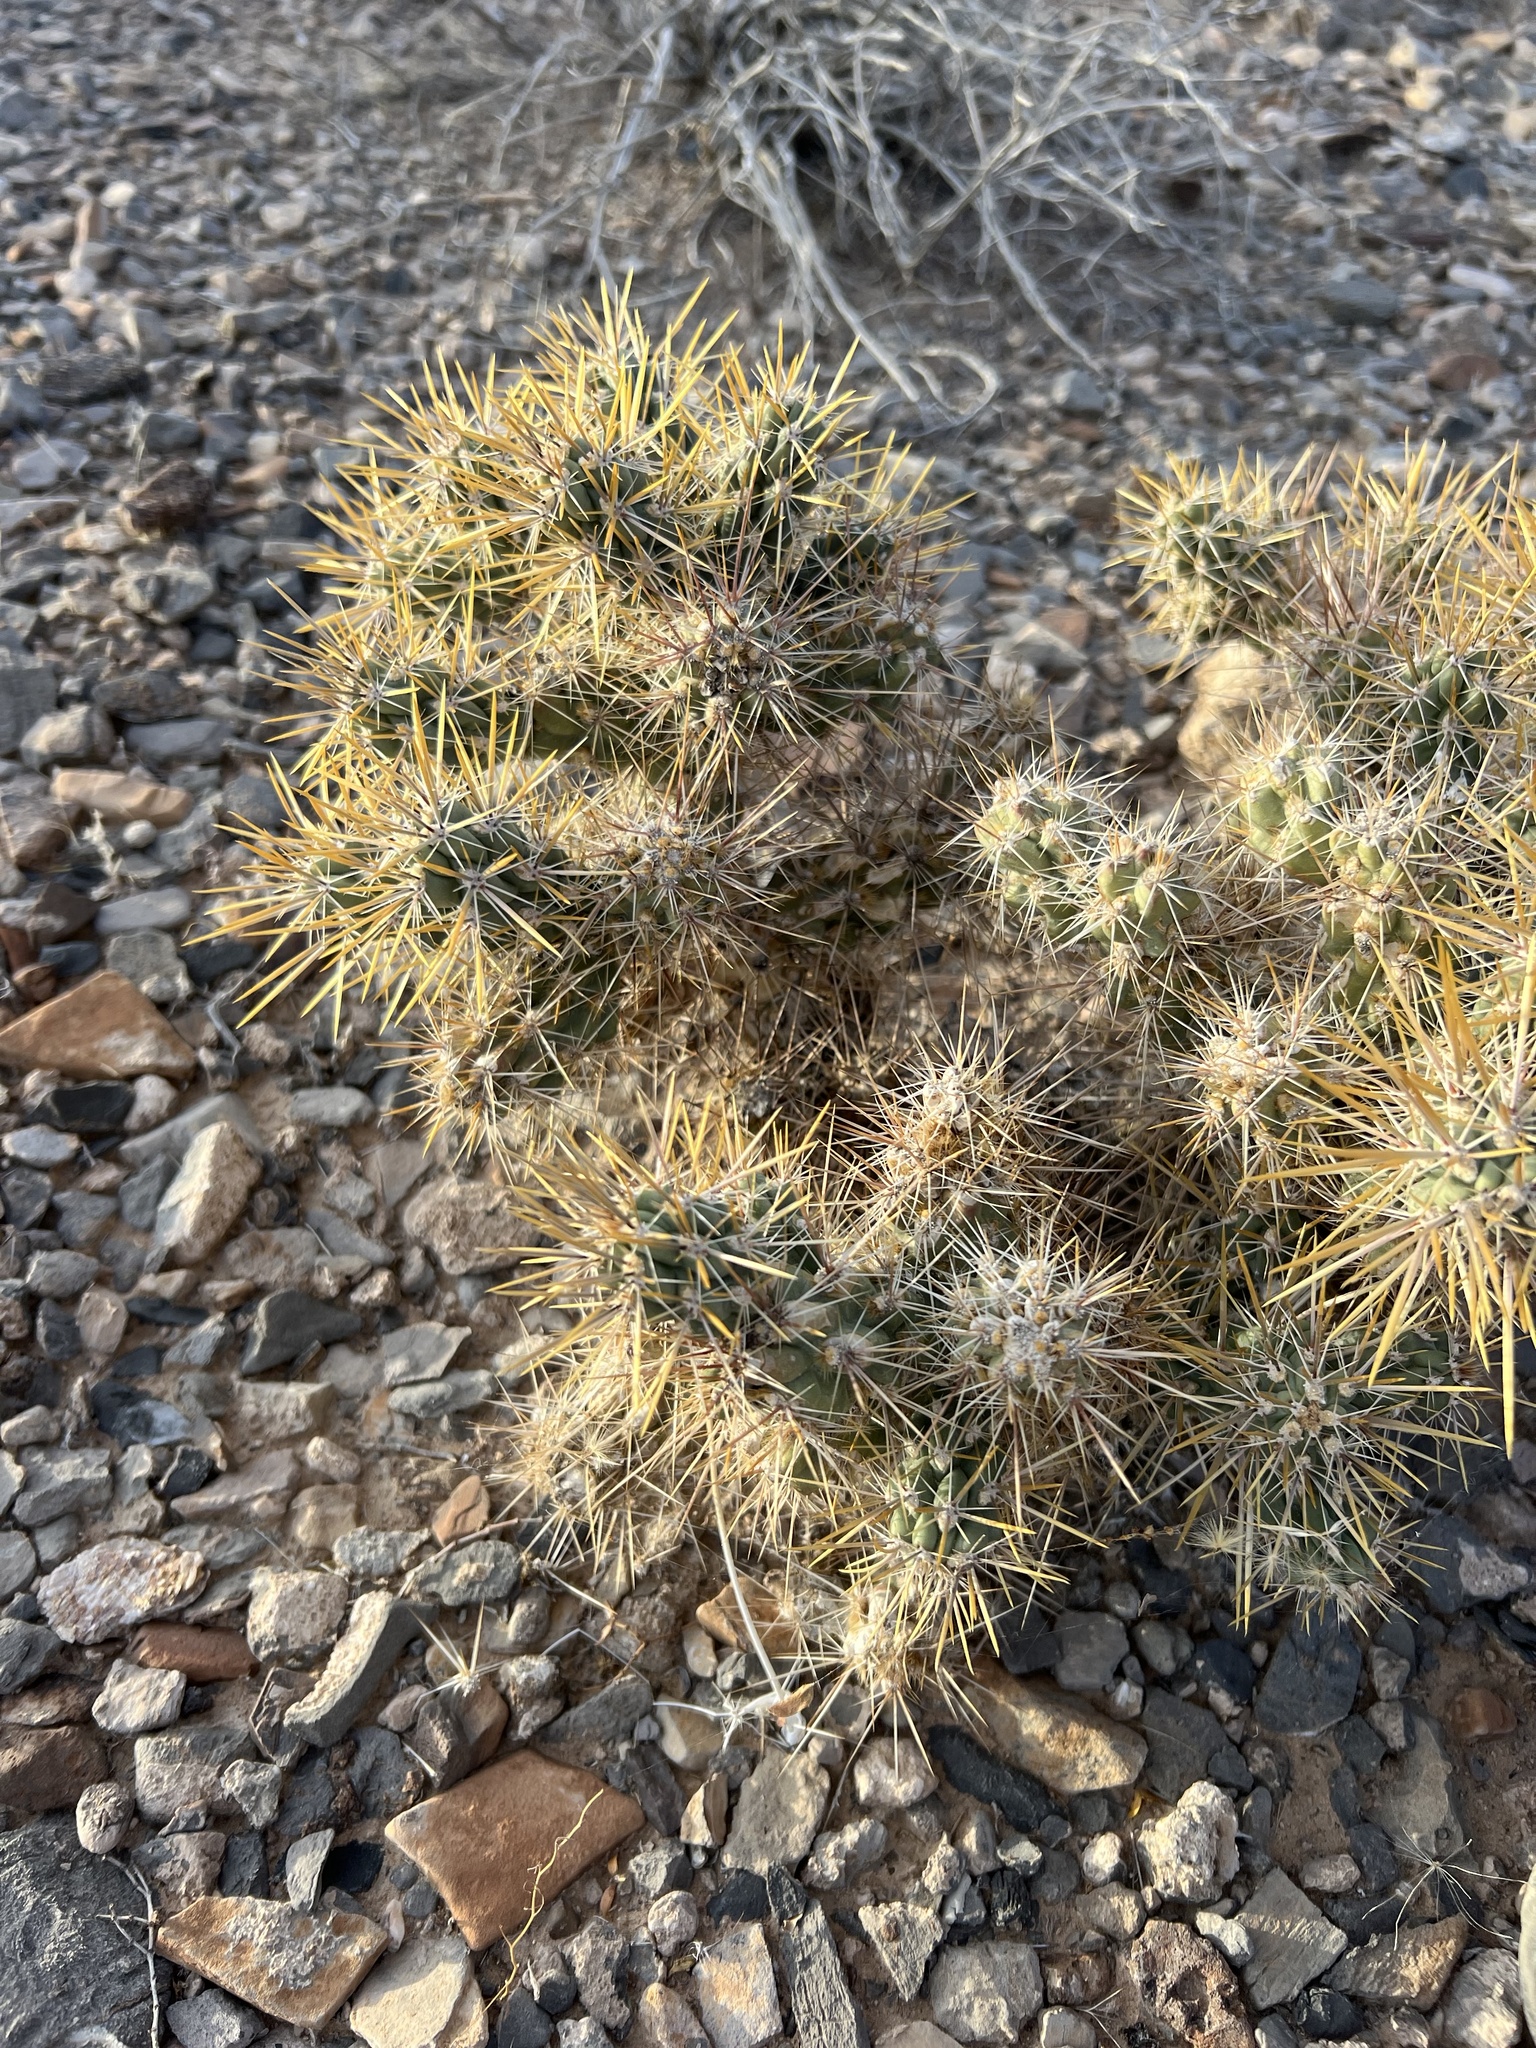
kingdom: Plantae
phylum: Tracheophyta
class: Magnoliopsida
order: Caryophyllales
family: Cactaceae
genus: Cylindropuntia
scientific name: Cylindropuntia echinocarpa
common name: Ground cholla
